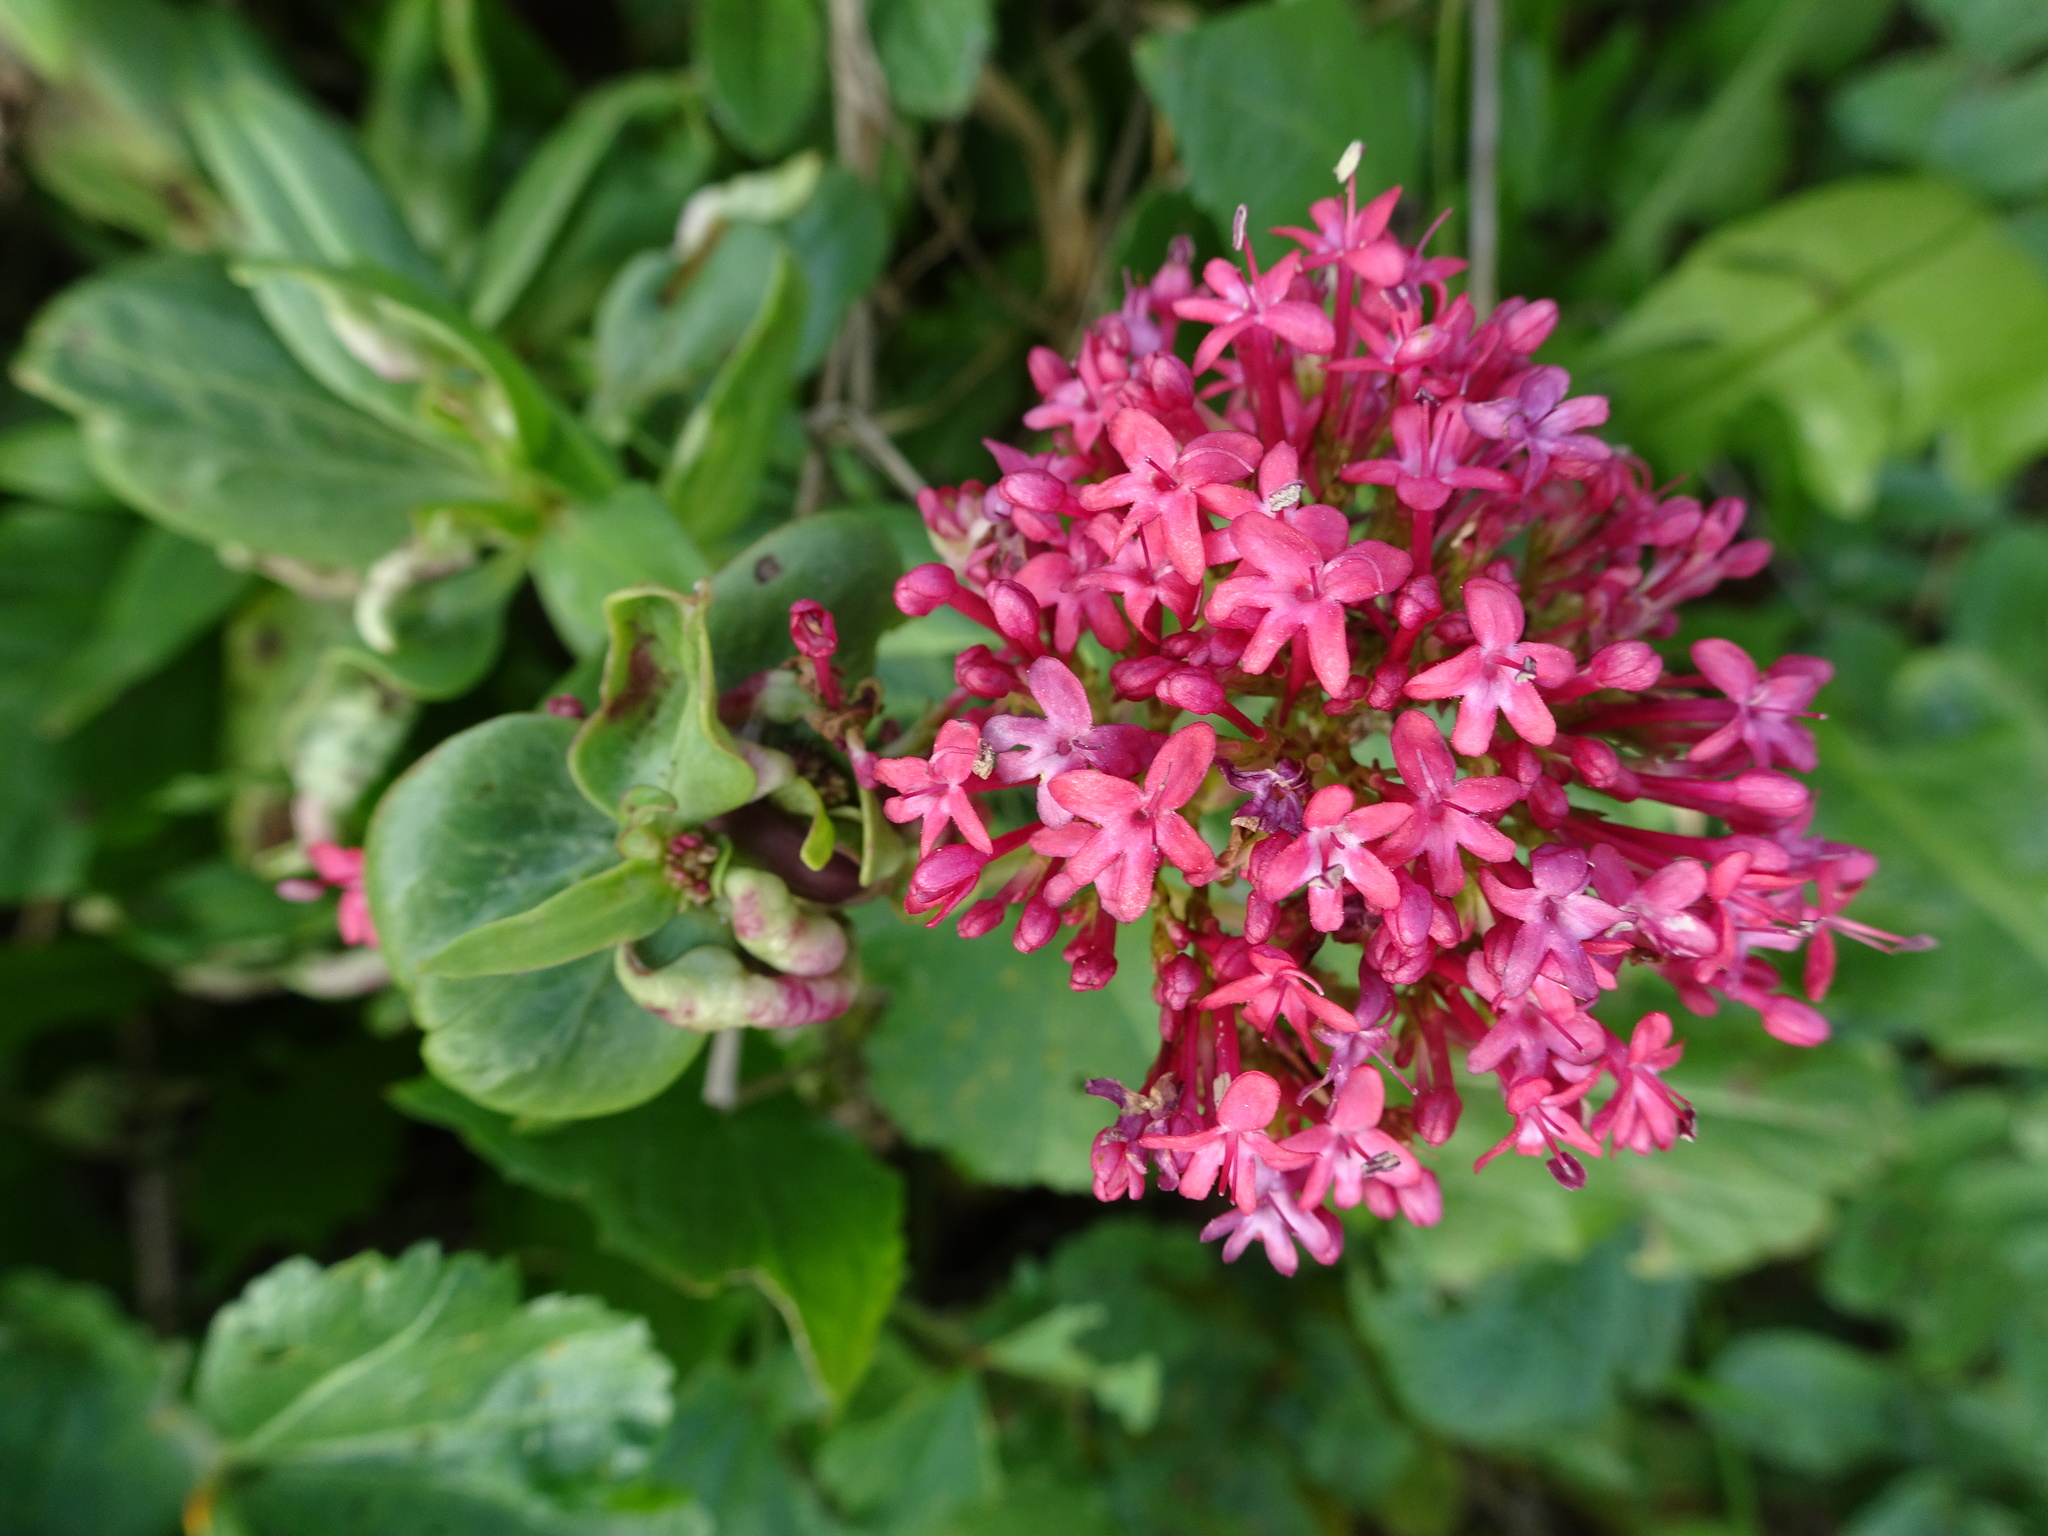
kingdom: Plantae
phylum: Tracheophyta
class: Magnoliopsida
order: Dipsacales
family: Caprifoliaceae
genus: Centranthus
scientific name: Centranthus ruber
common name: Red valerian
